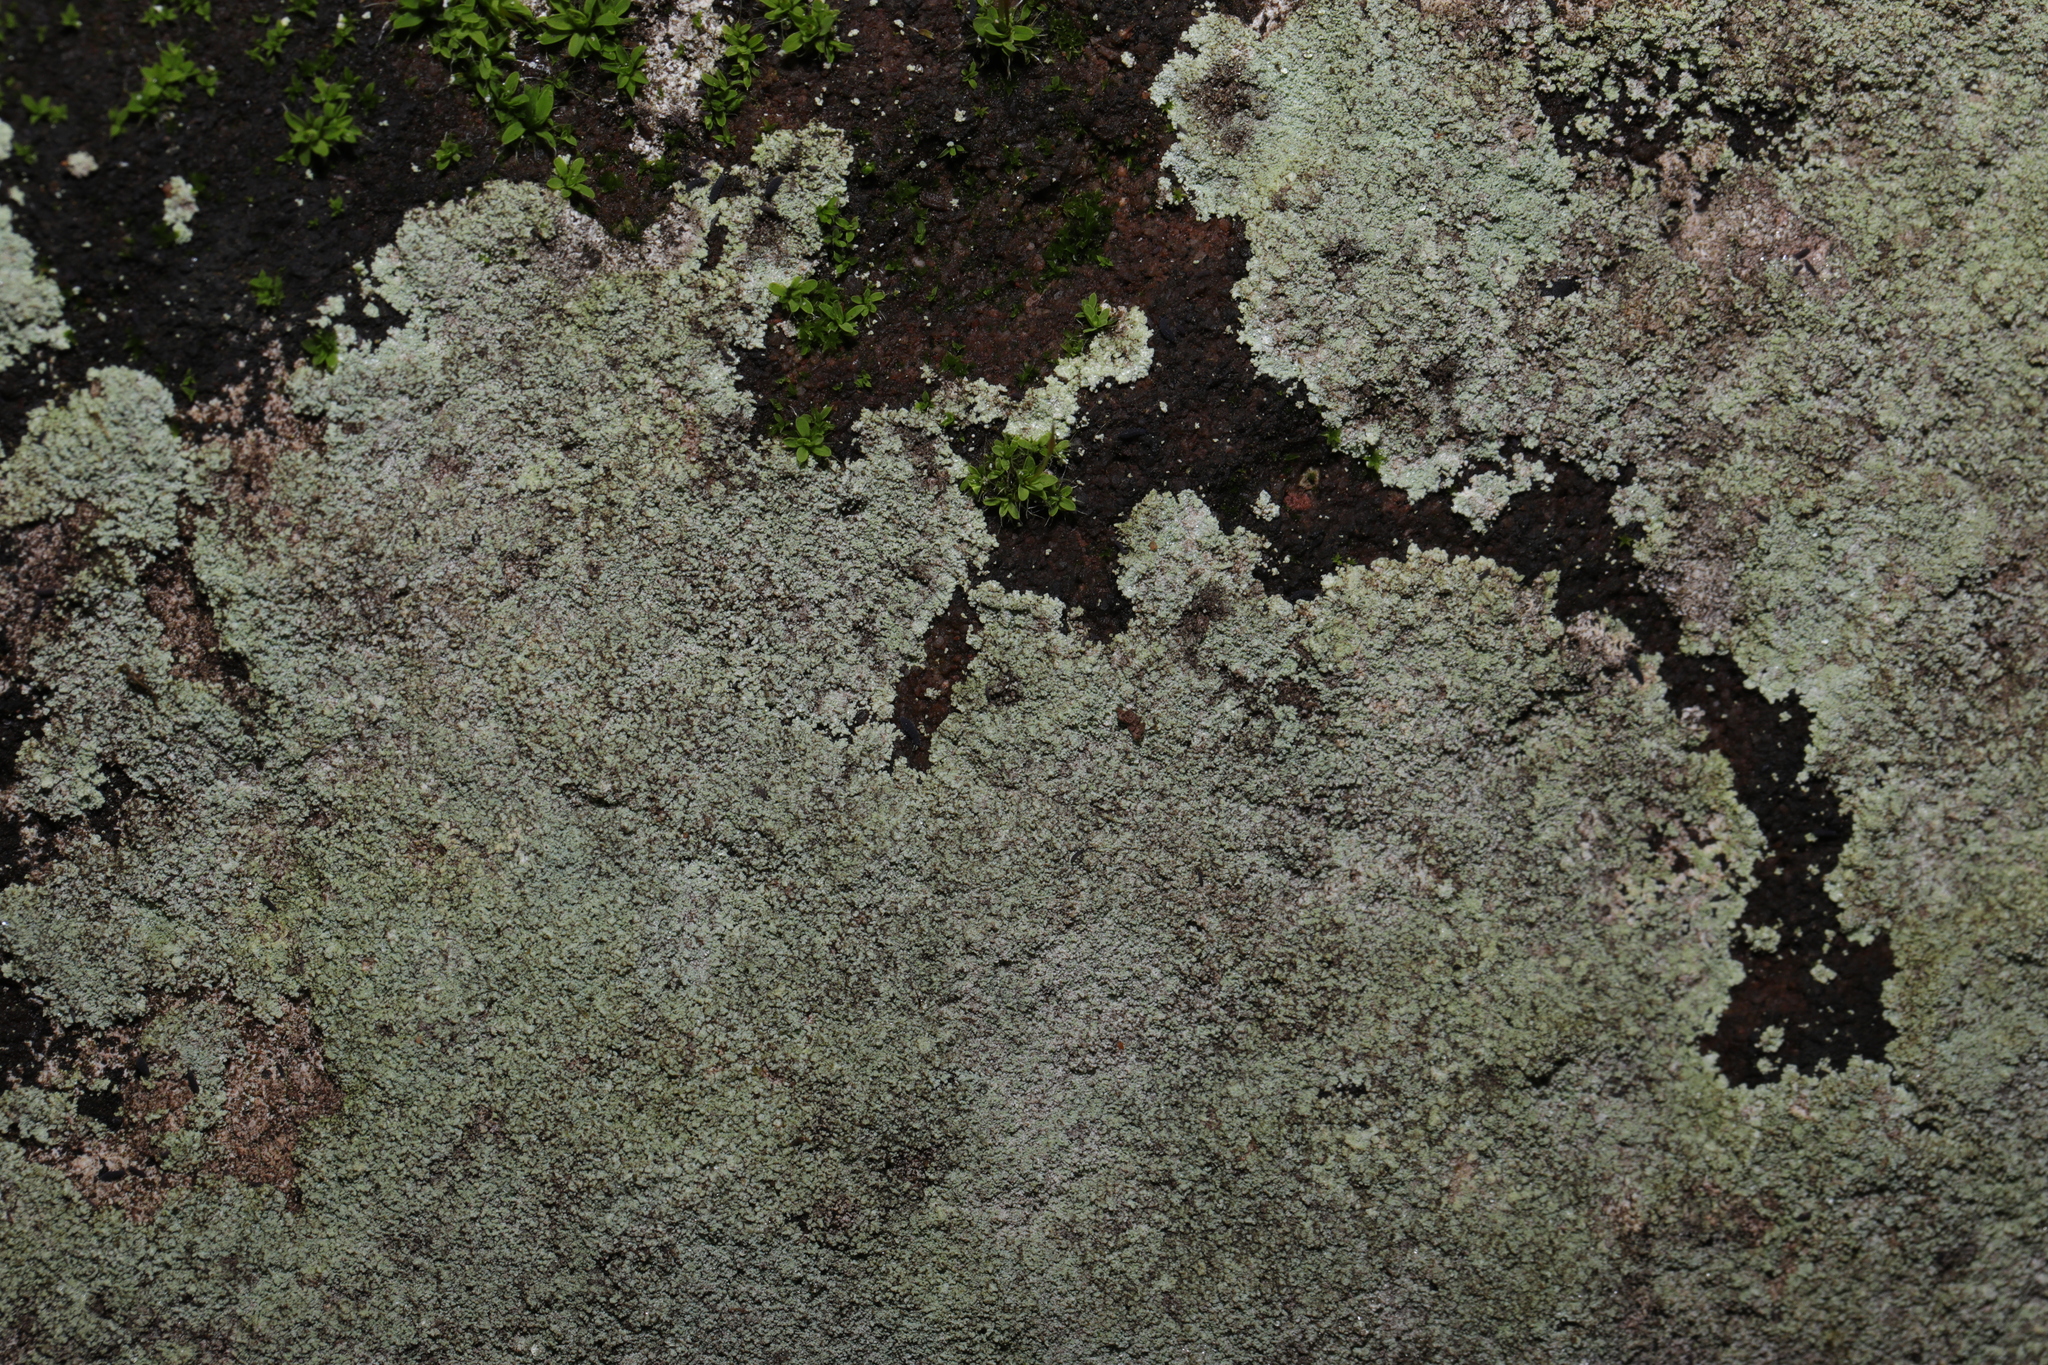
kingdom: Fungi
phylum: Ascomycota
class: Lecanoromycetes
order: Lecanorales
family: Stereocaulaceae
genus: Lepraria
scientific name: Lepraria
